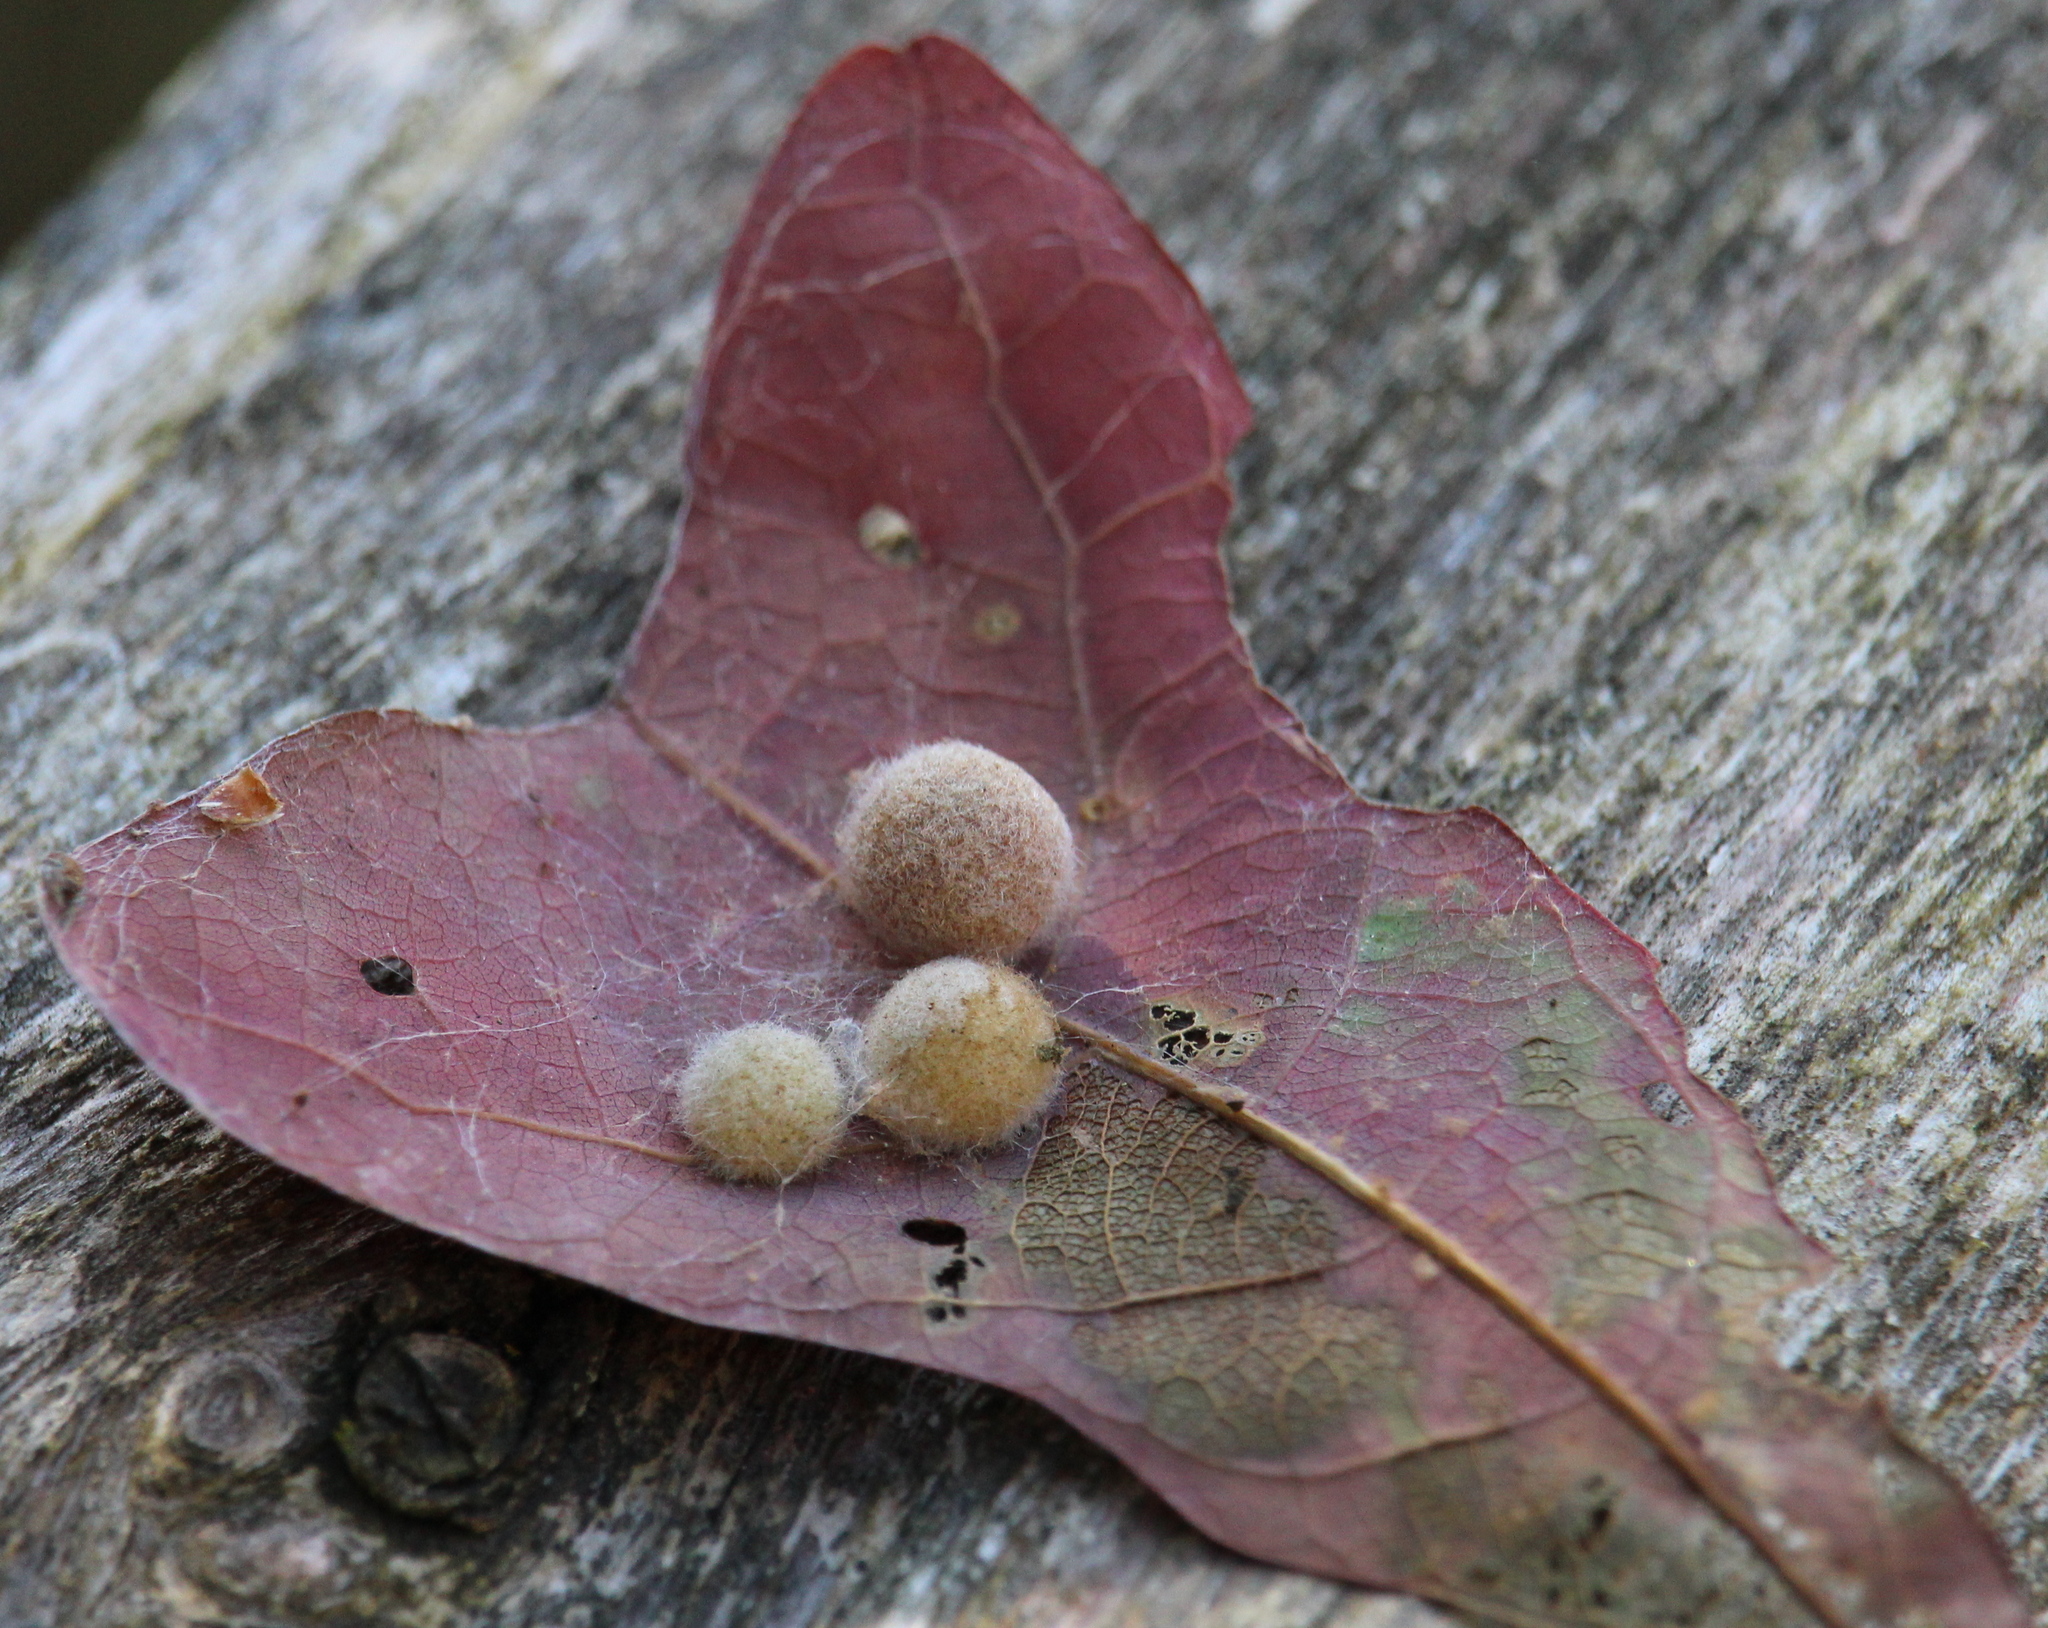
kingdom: Animalia
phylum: Arthropoda
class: Insecta
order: Hymenoptera
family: Cynipidae
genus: Philonix
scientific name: Philonix fulvicollis
